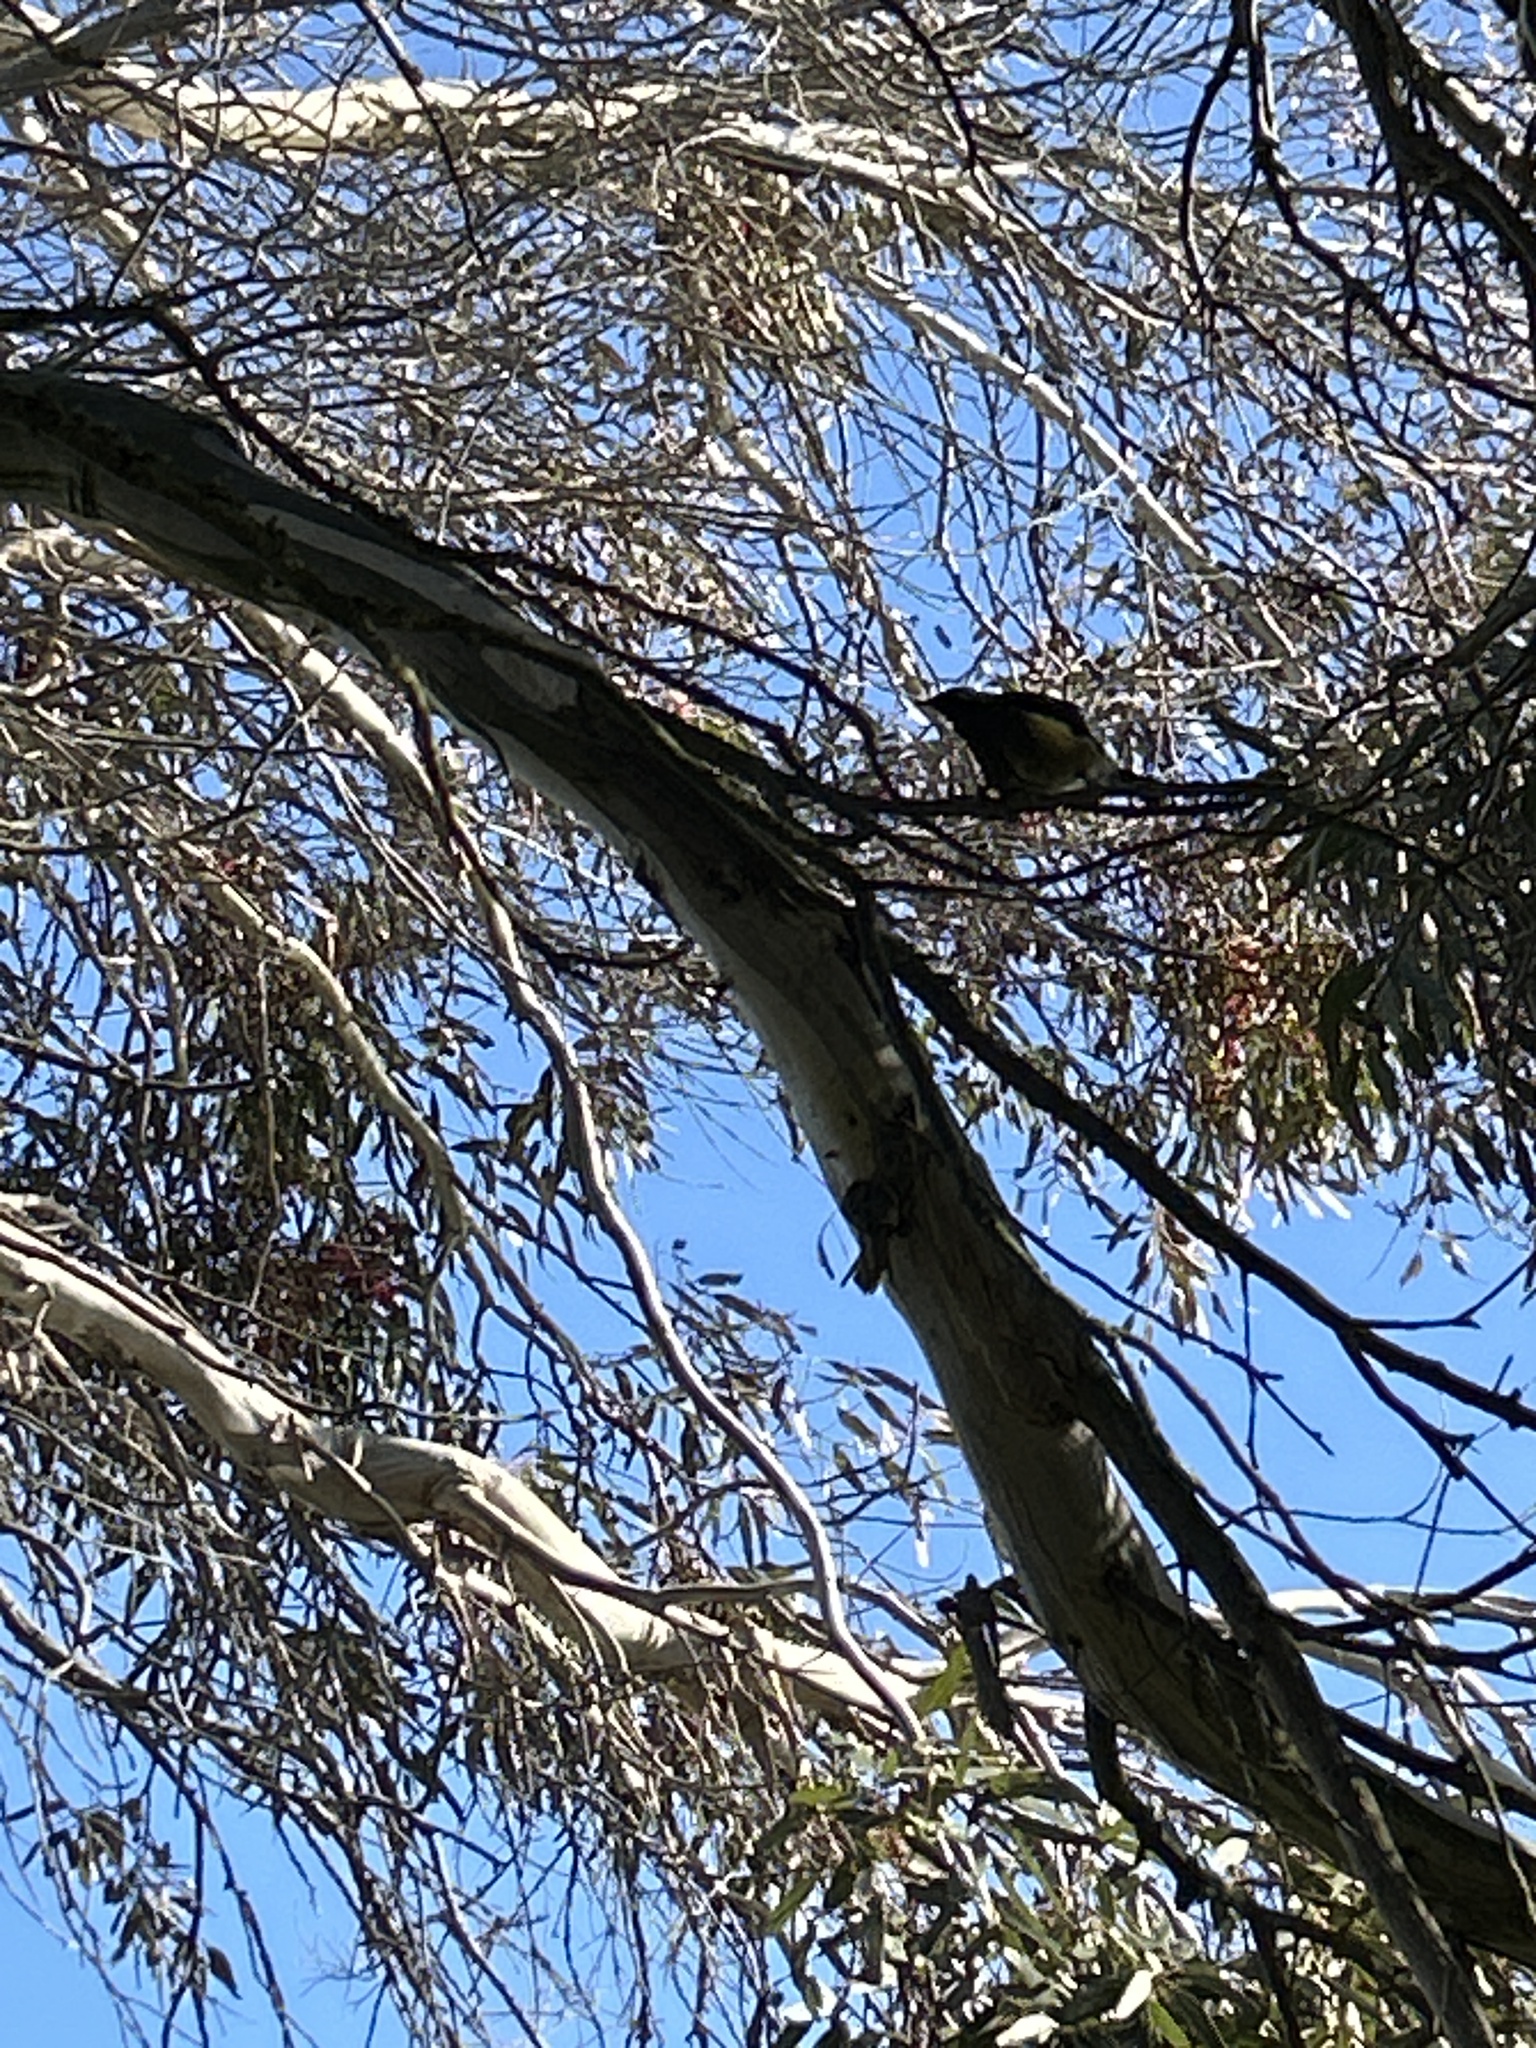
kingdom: Animalia
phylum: Chordata
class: Aves
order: Passeriformes
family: Meliphagidae
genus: Anthornis
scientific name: Anthornis melanura
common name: New zealand bellbird
